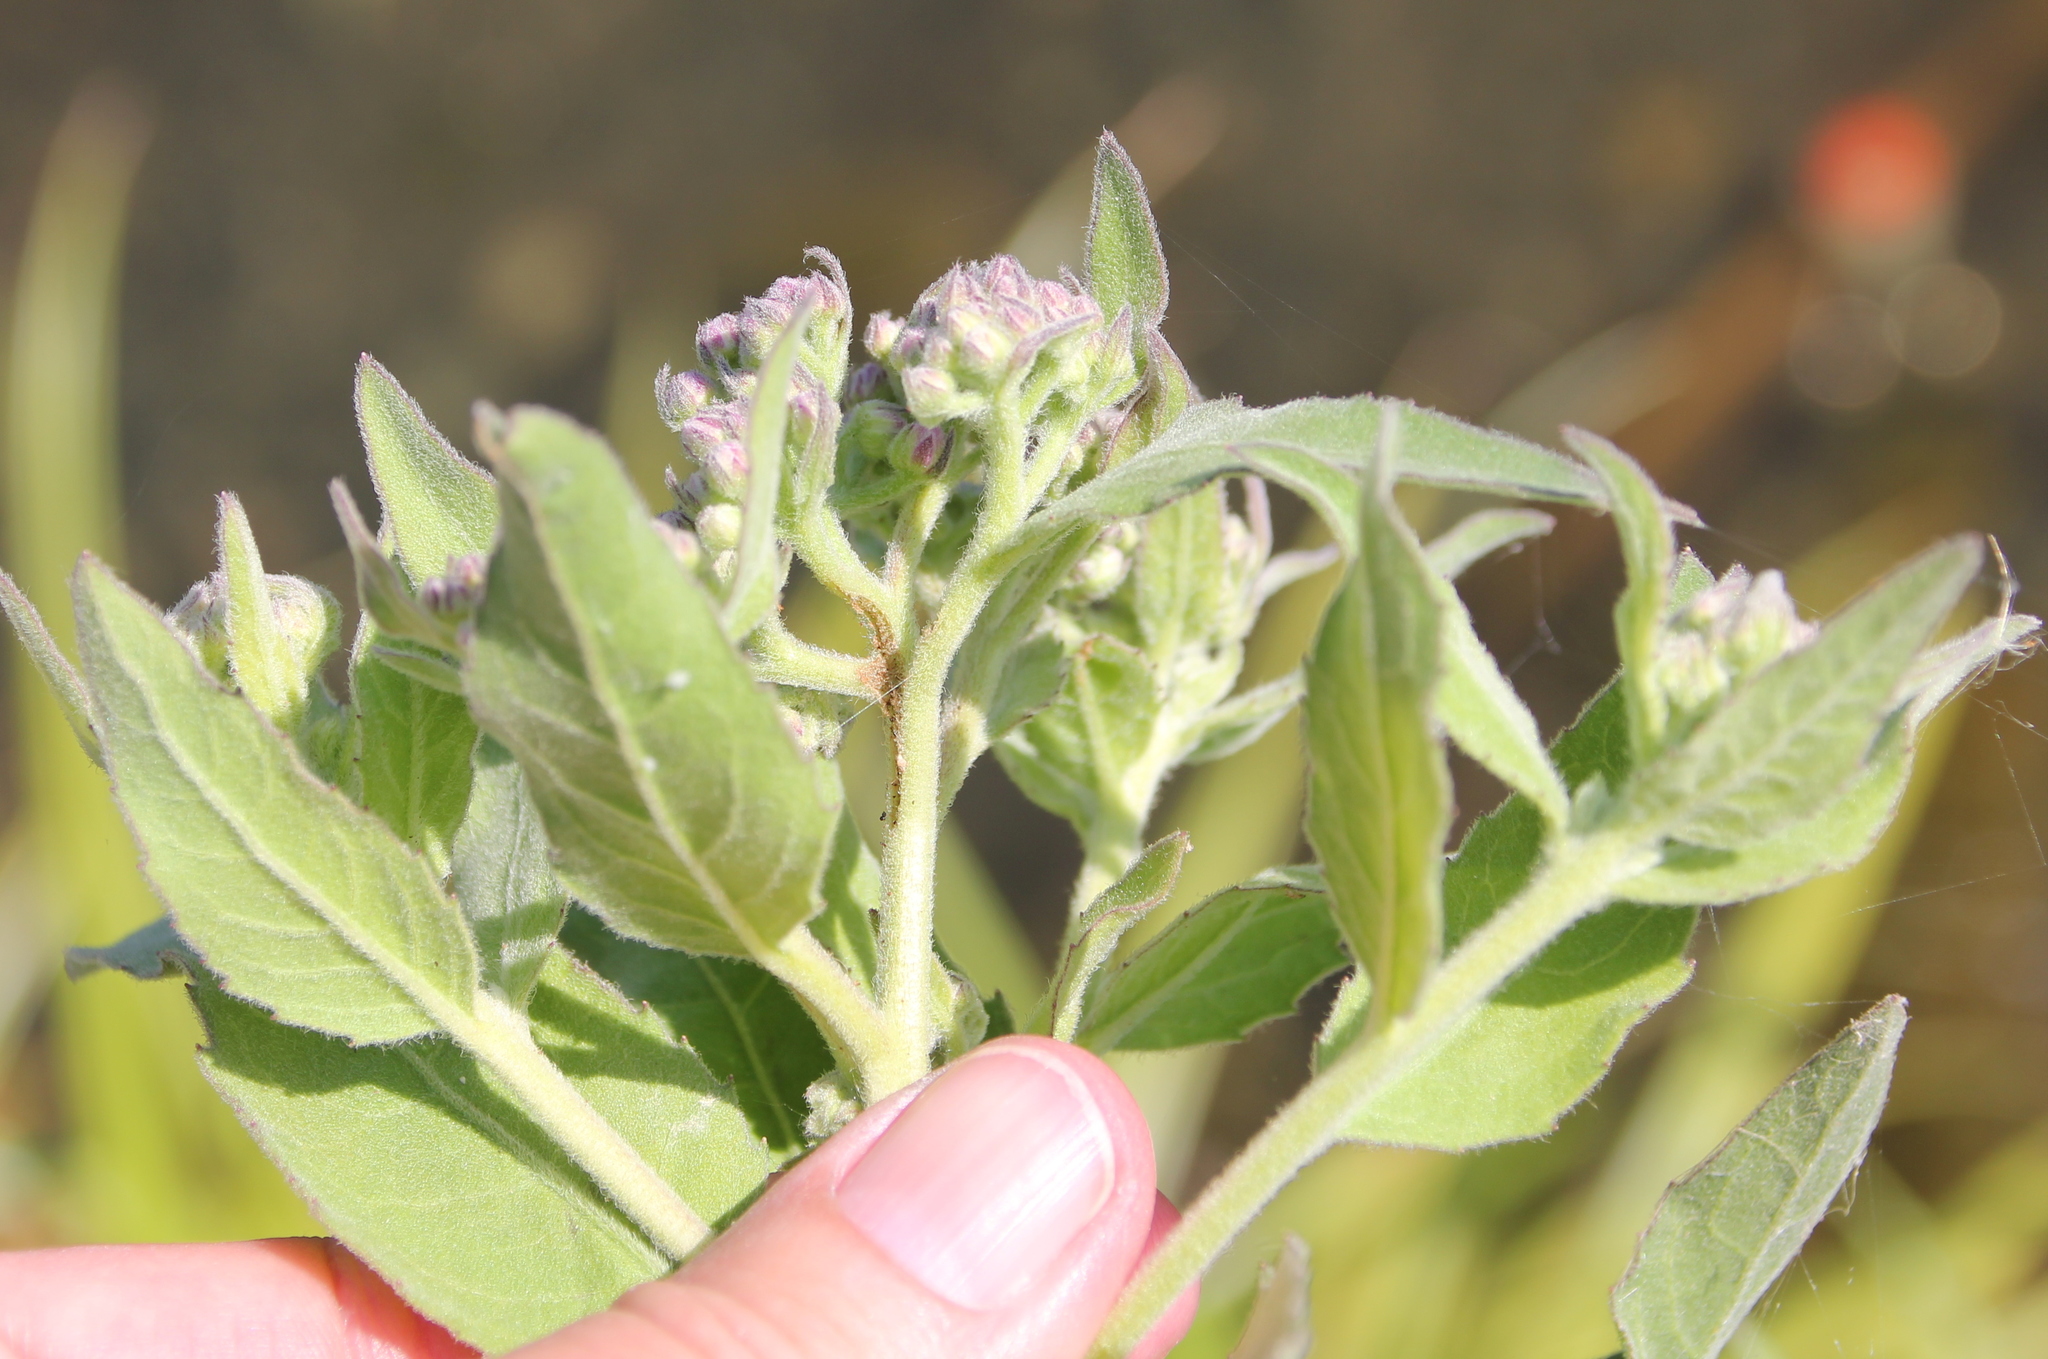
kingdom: Plantae
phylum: Tracheophyta
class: Magnoliopsida
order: Asterales
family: Asteraceae
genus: Pluchea
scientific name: Pluchea odorata
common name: Saltmarsh fleabane
